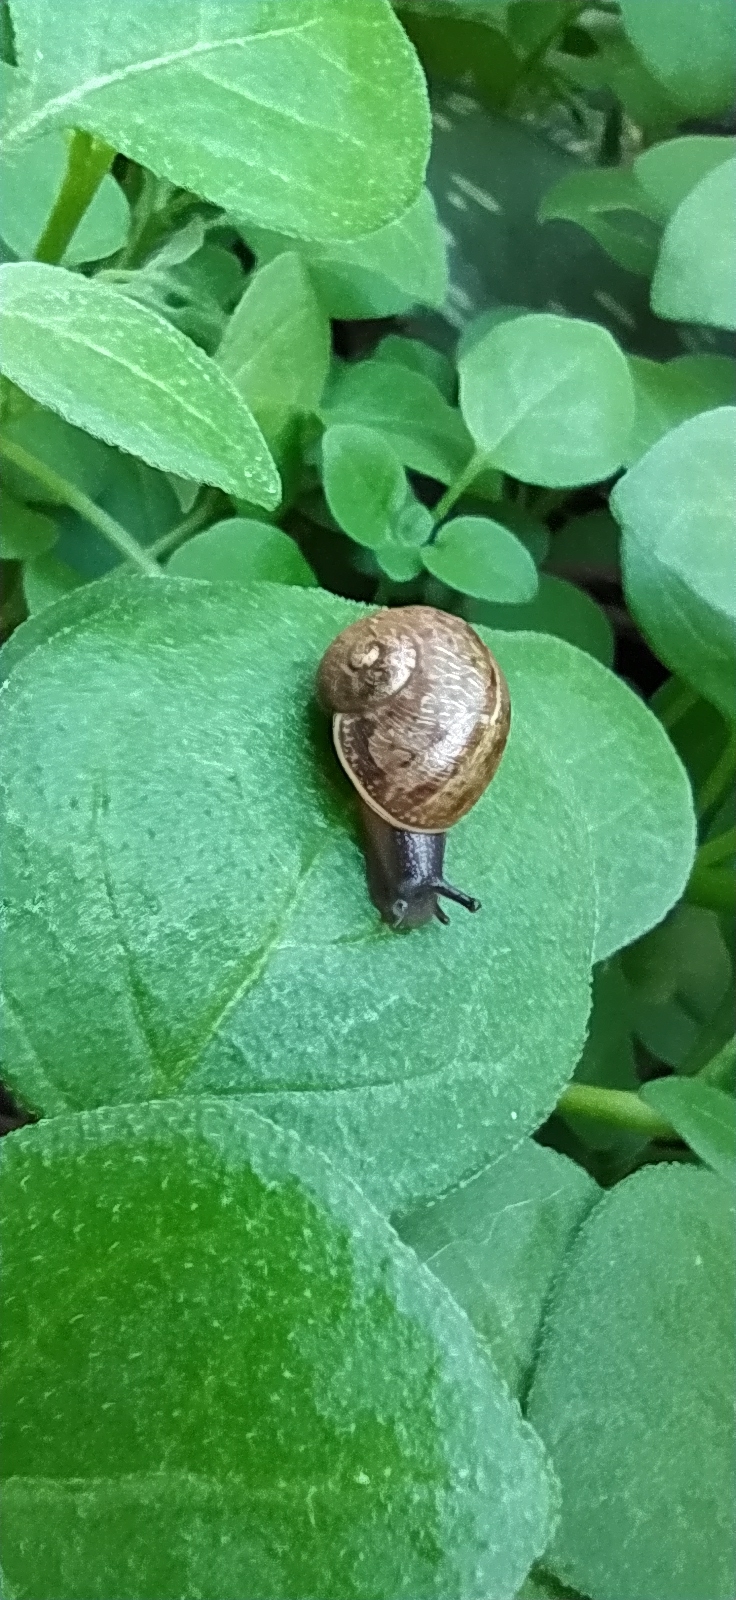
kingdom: Animalia
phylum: Mollusca
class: Gastropoda
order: Stylommatophora
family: Helicidae
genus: Cornu
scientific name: Cornu aspersum
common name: Brown garden snail
